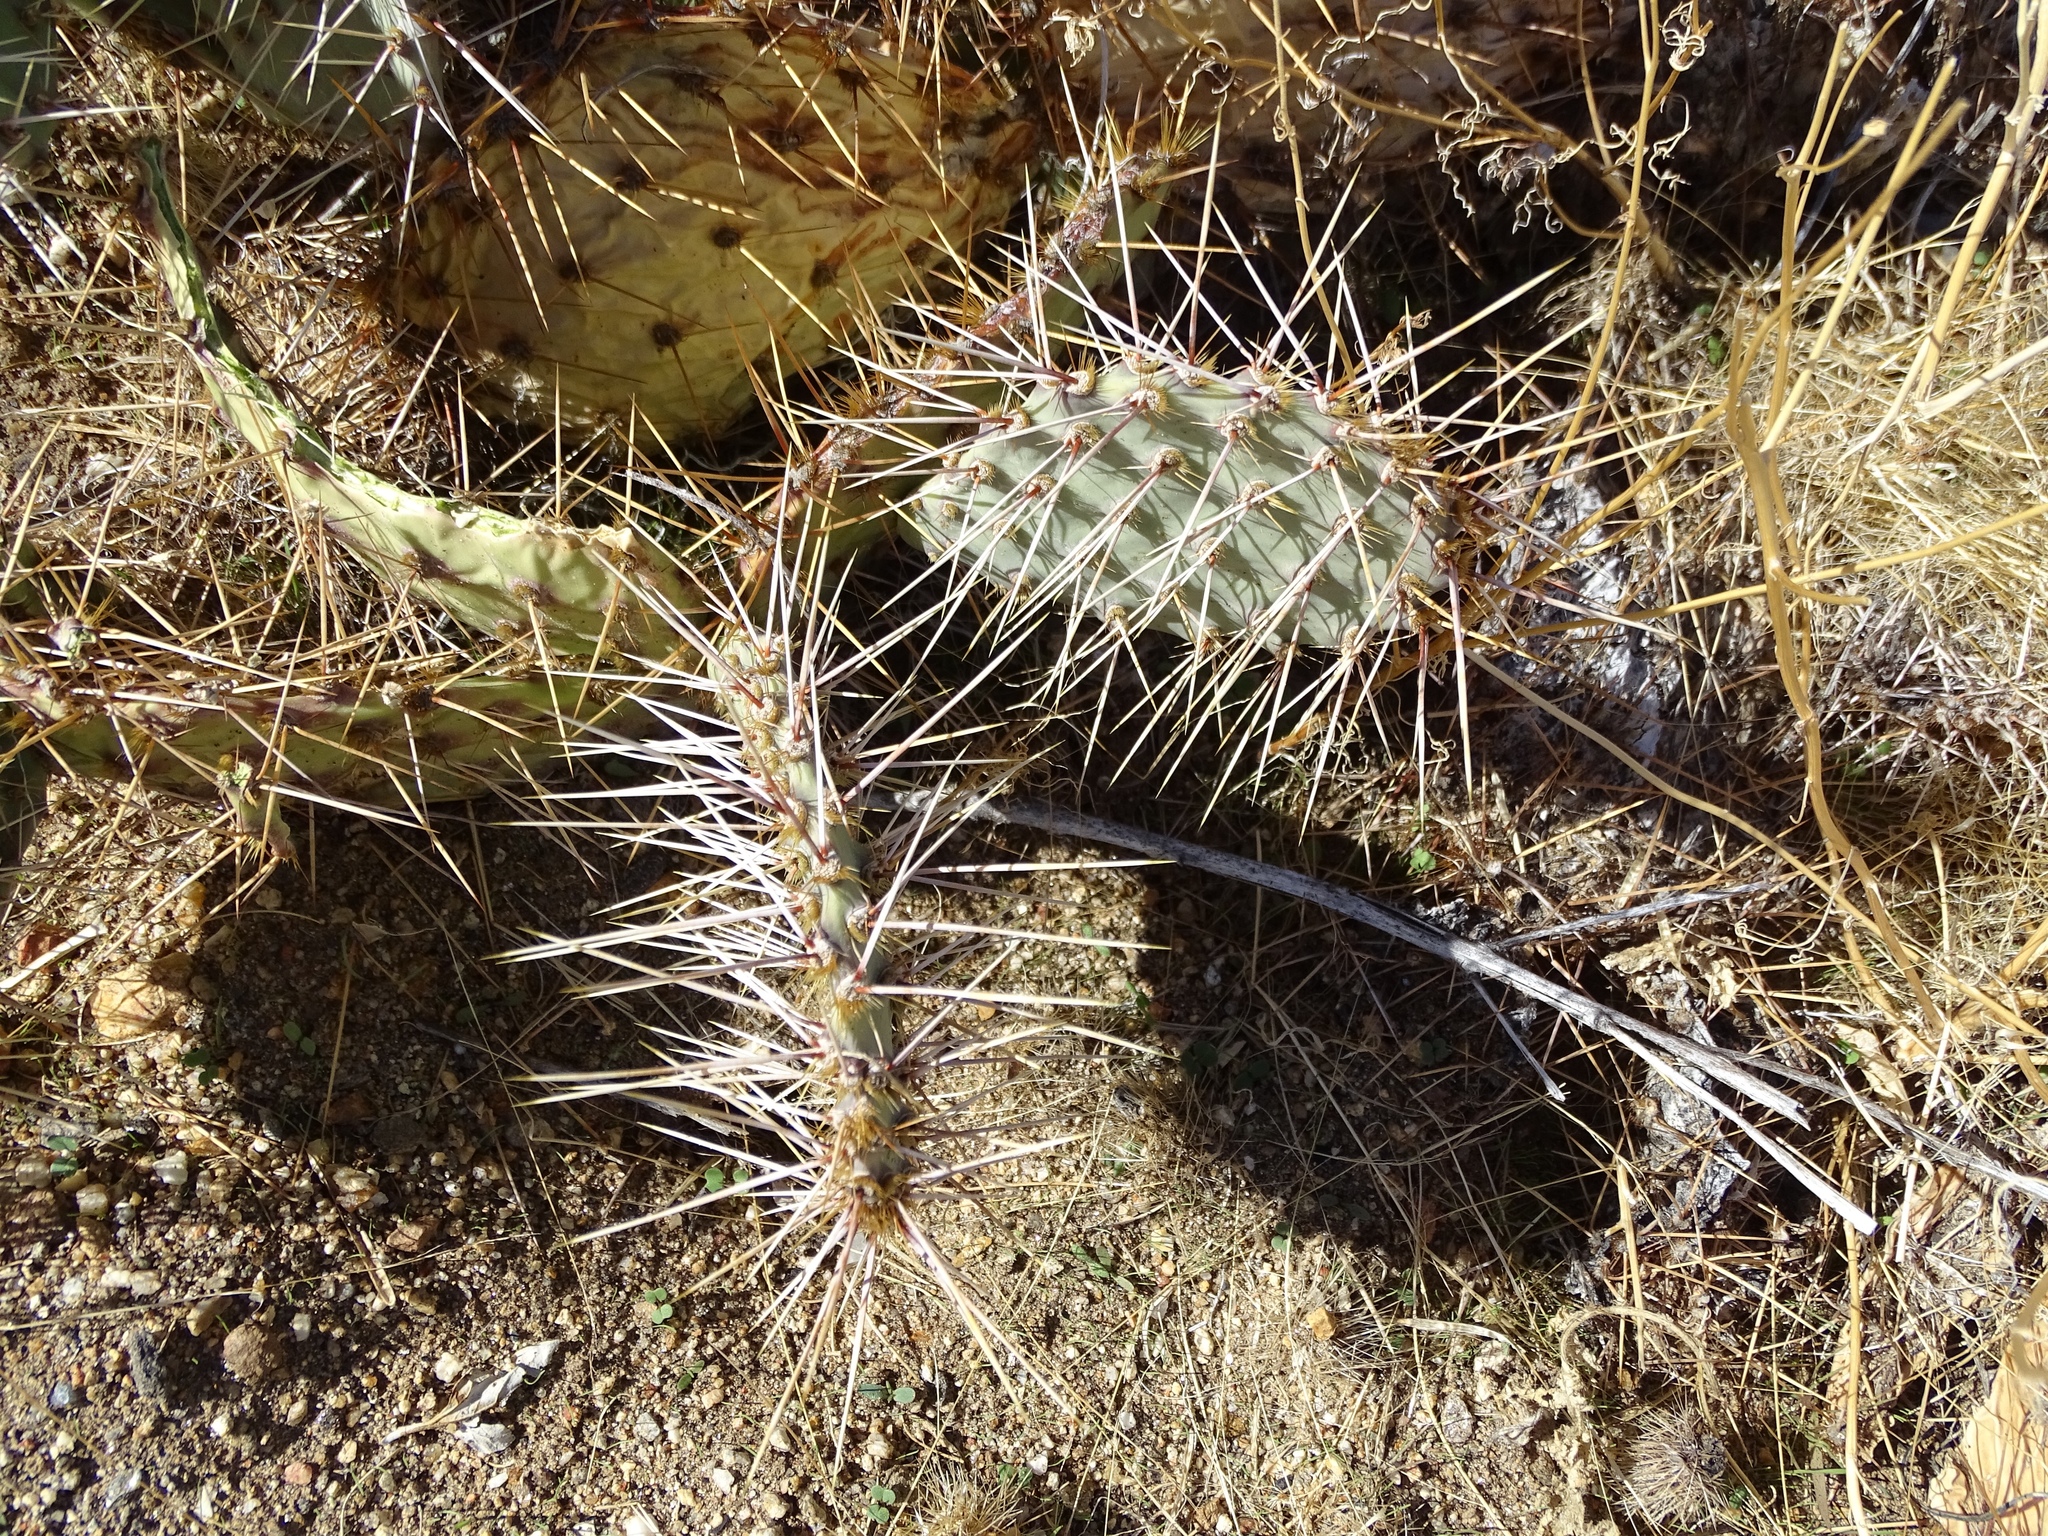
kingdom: Plantae
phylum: Tracheophyta
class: Magnoliopsida
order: Caryophyllales
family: Cactaceae
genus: Opuntia
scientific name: Opuntia phaeacantha
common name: New mexico prickly-pear
